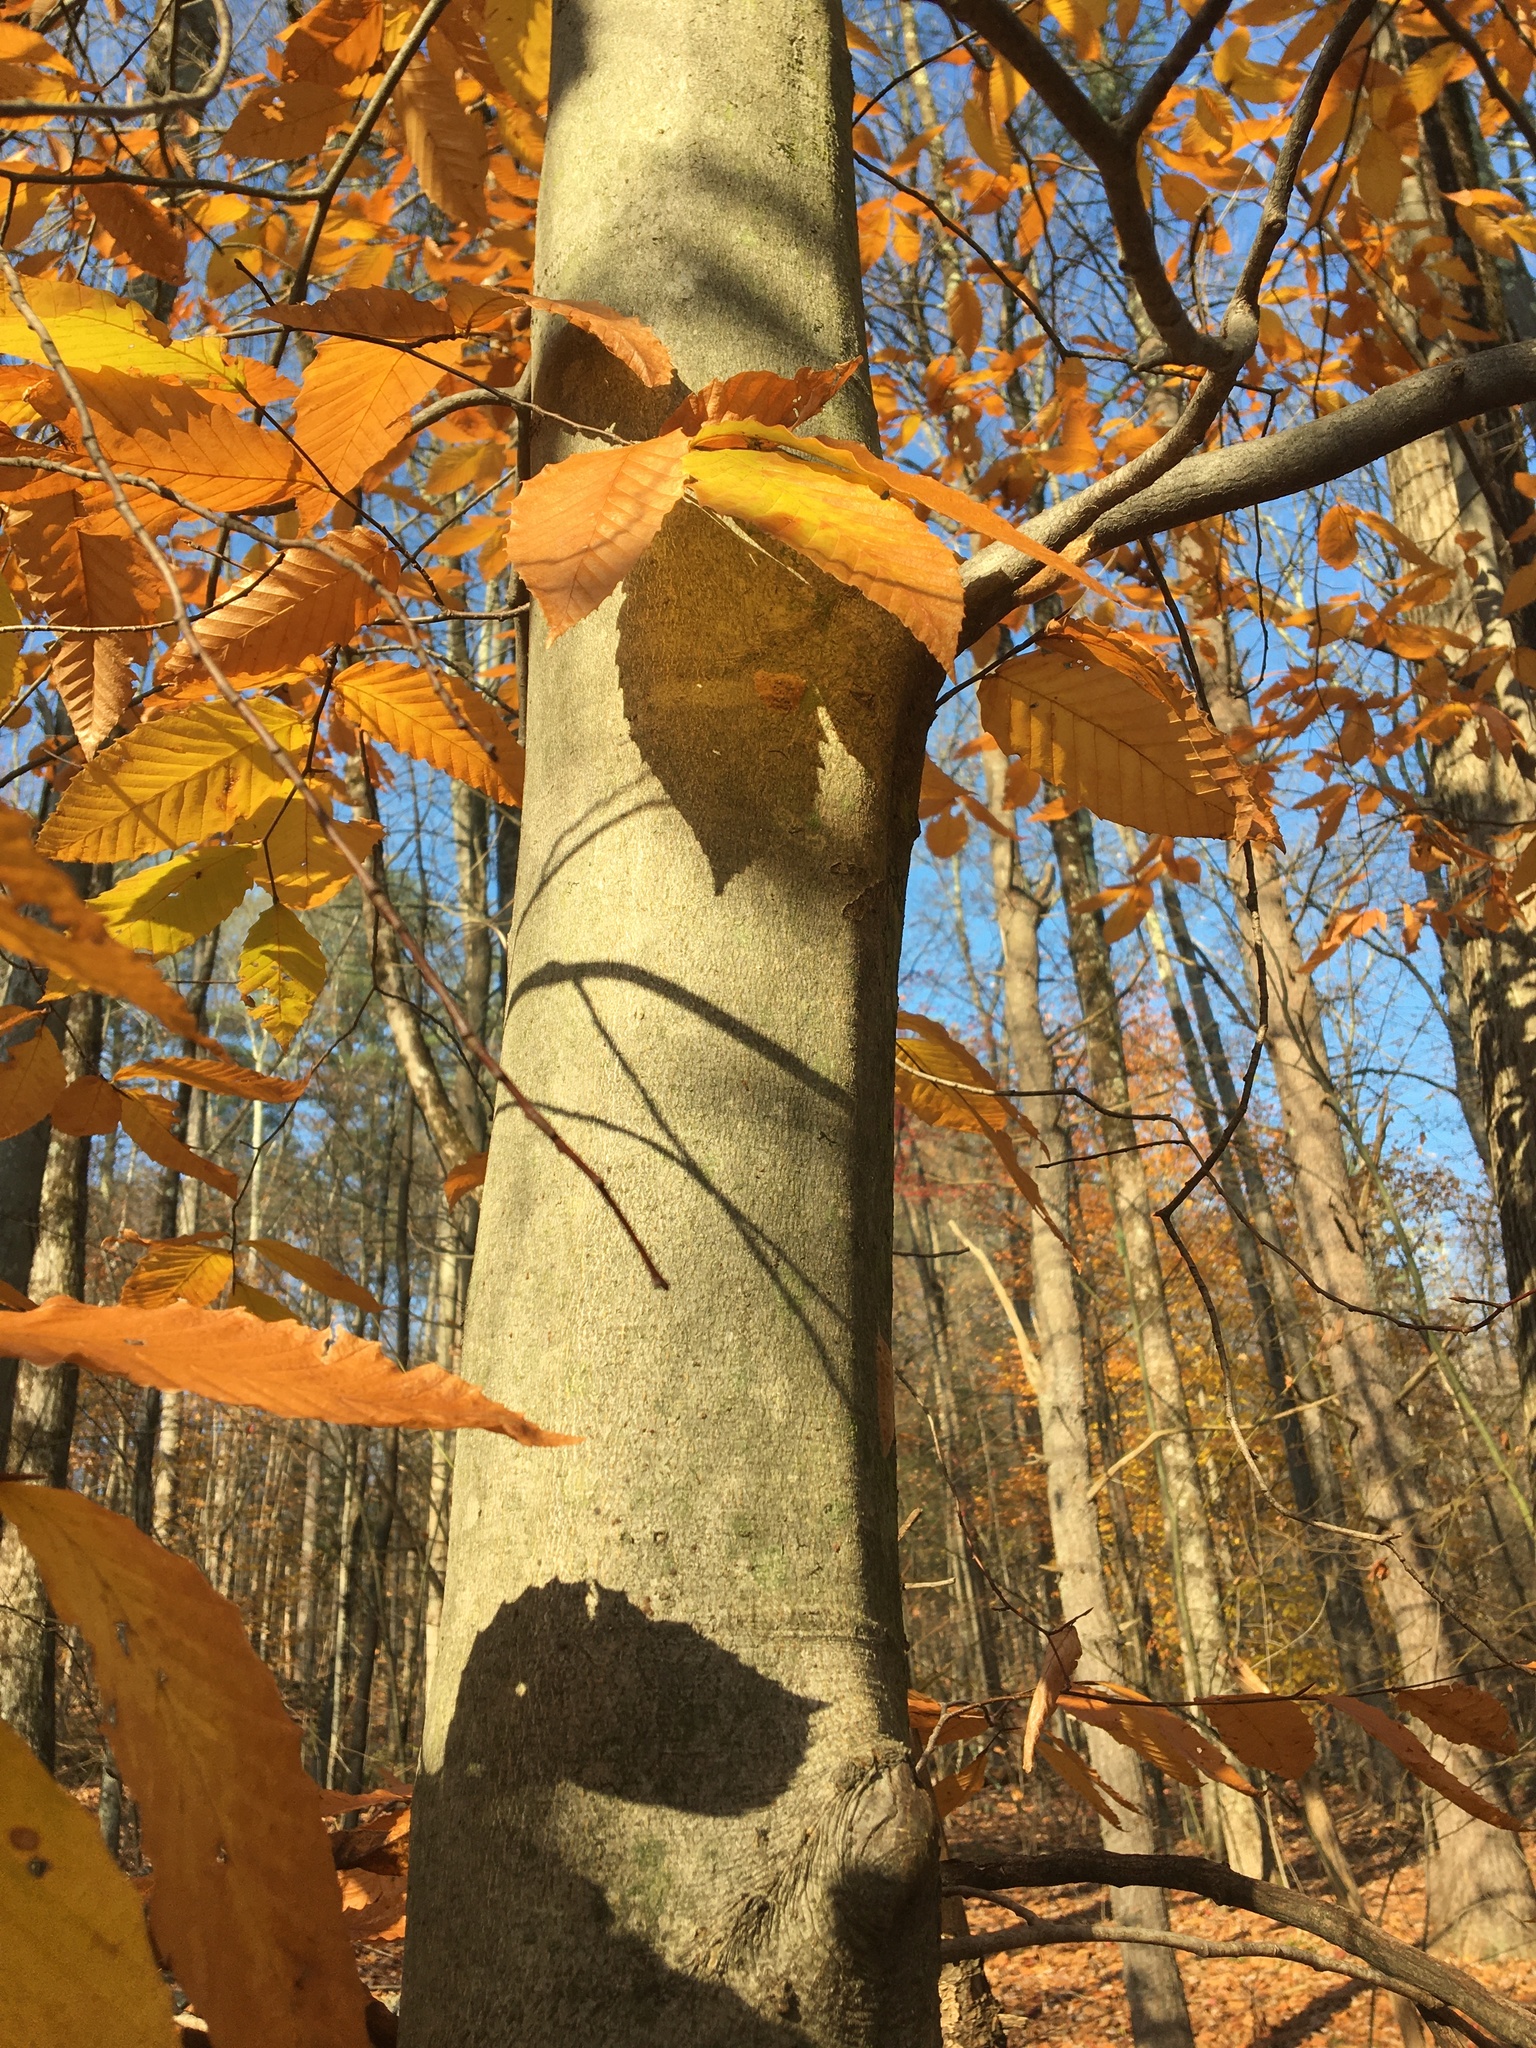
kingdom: Plantae
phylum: Tracheophyta
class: Magnoliopsida
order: Fagales
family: Fagaceae
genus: Fagus
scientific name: Fagus grandifolia
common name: American beech
